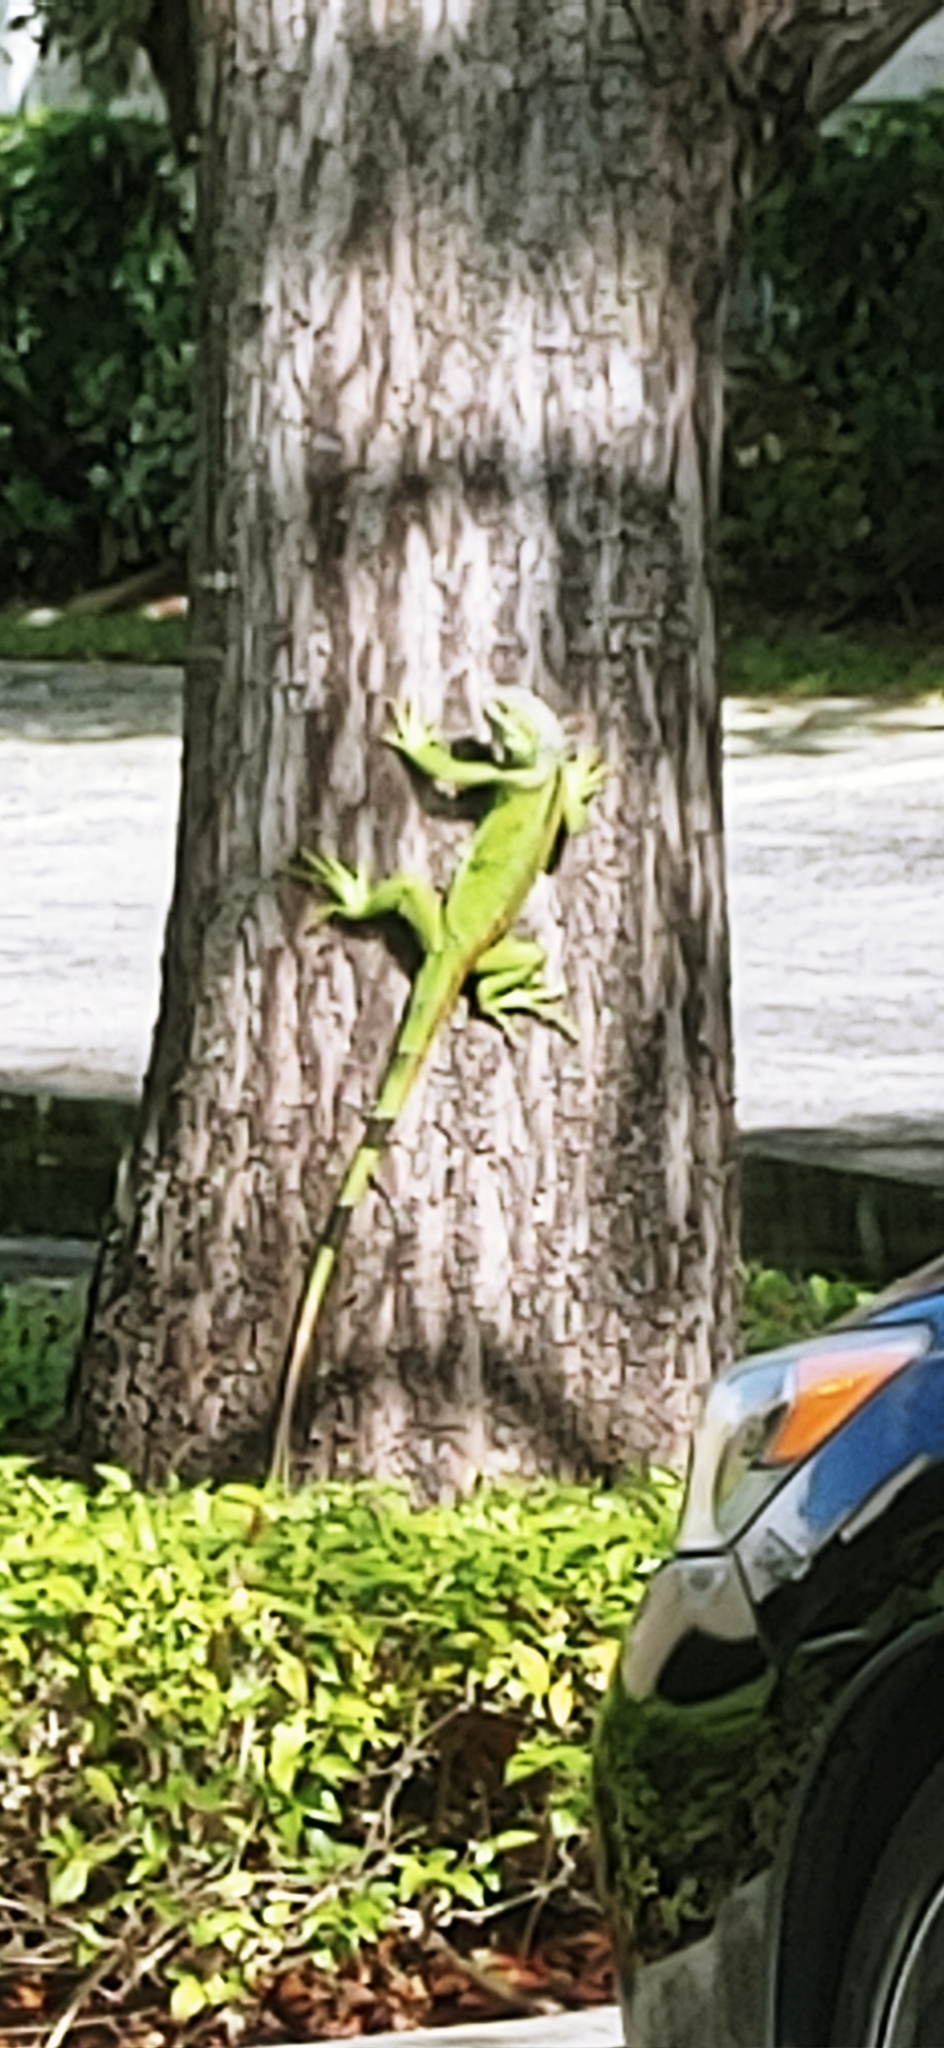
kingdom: Animalia
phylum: Chordata
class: Squamata
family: Iguanidae
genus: Iguana
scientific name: Iguana iguana
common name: Green iguana
